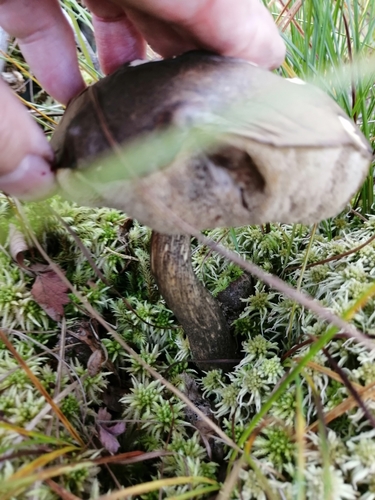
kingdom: Fungi
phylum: Basidiomycota
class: Agaricomycetes
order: Boletales
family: Boletaceae
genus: Leccinum
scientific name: Leccinum
